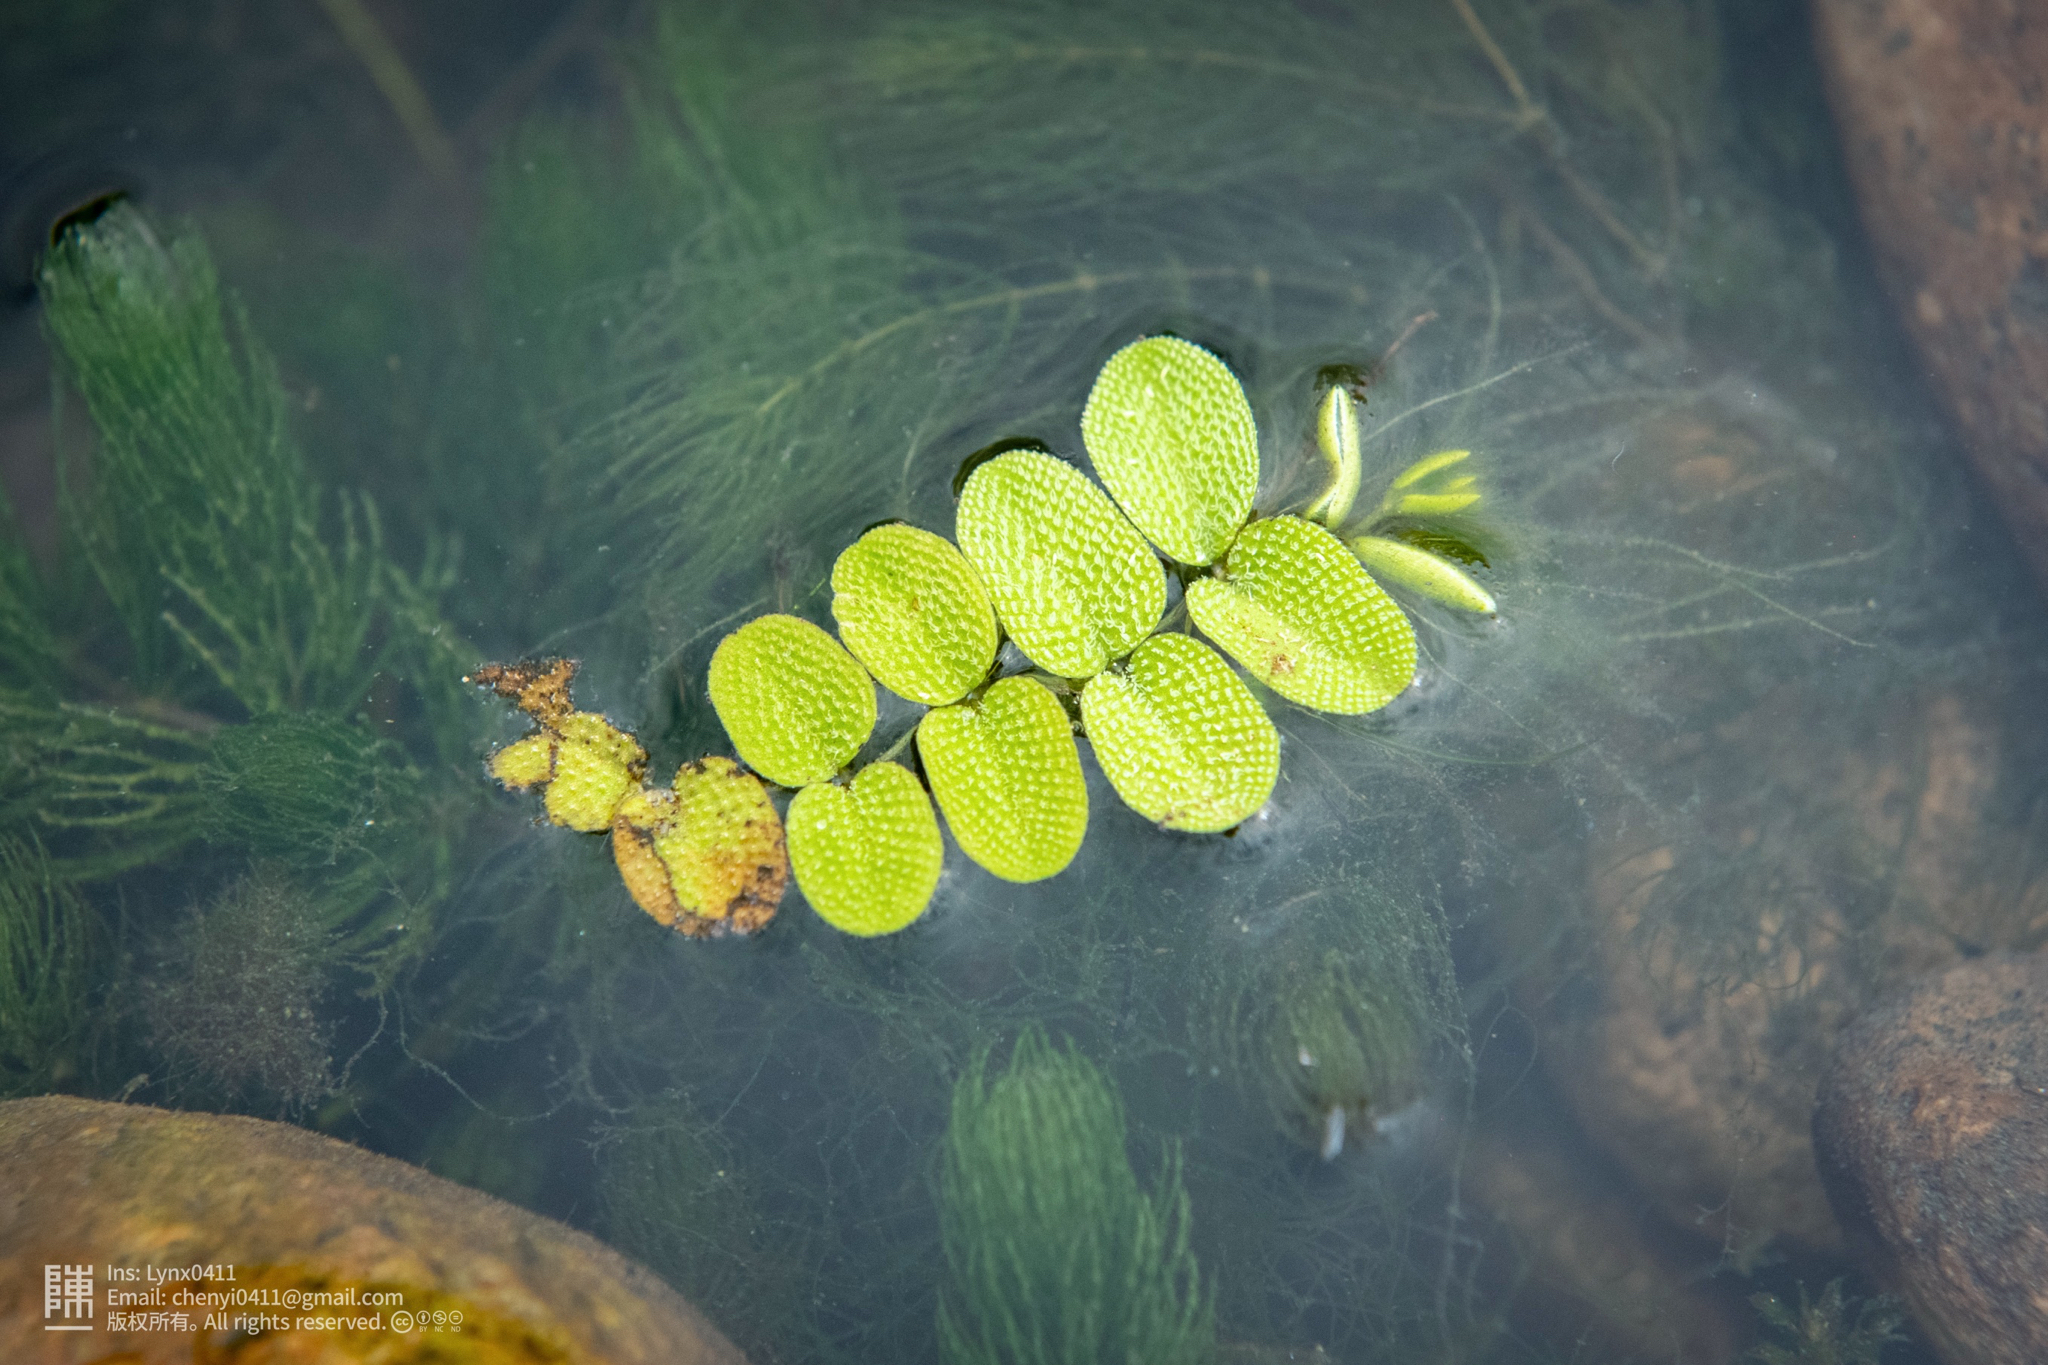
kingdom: Plantae
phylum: Tracheophyta
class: Polypodiopsida
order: Salviniales
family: Salviniaceae
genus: Salvinia
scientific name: Salvinia natans
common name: Floating fern
